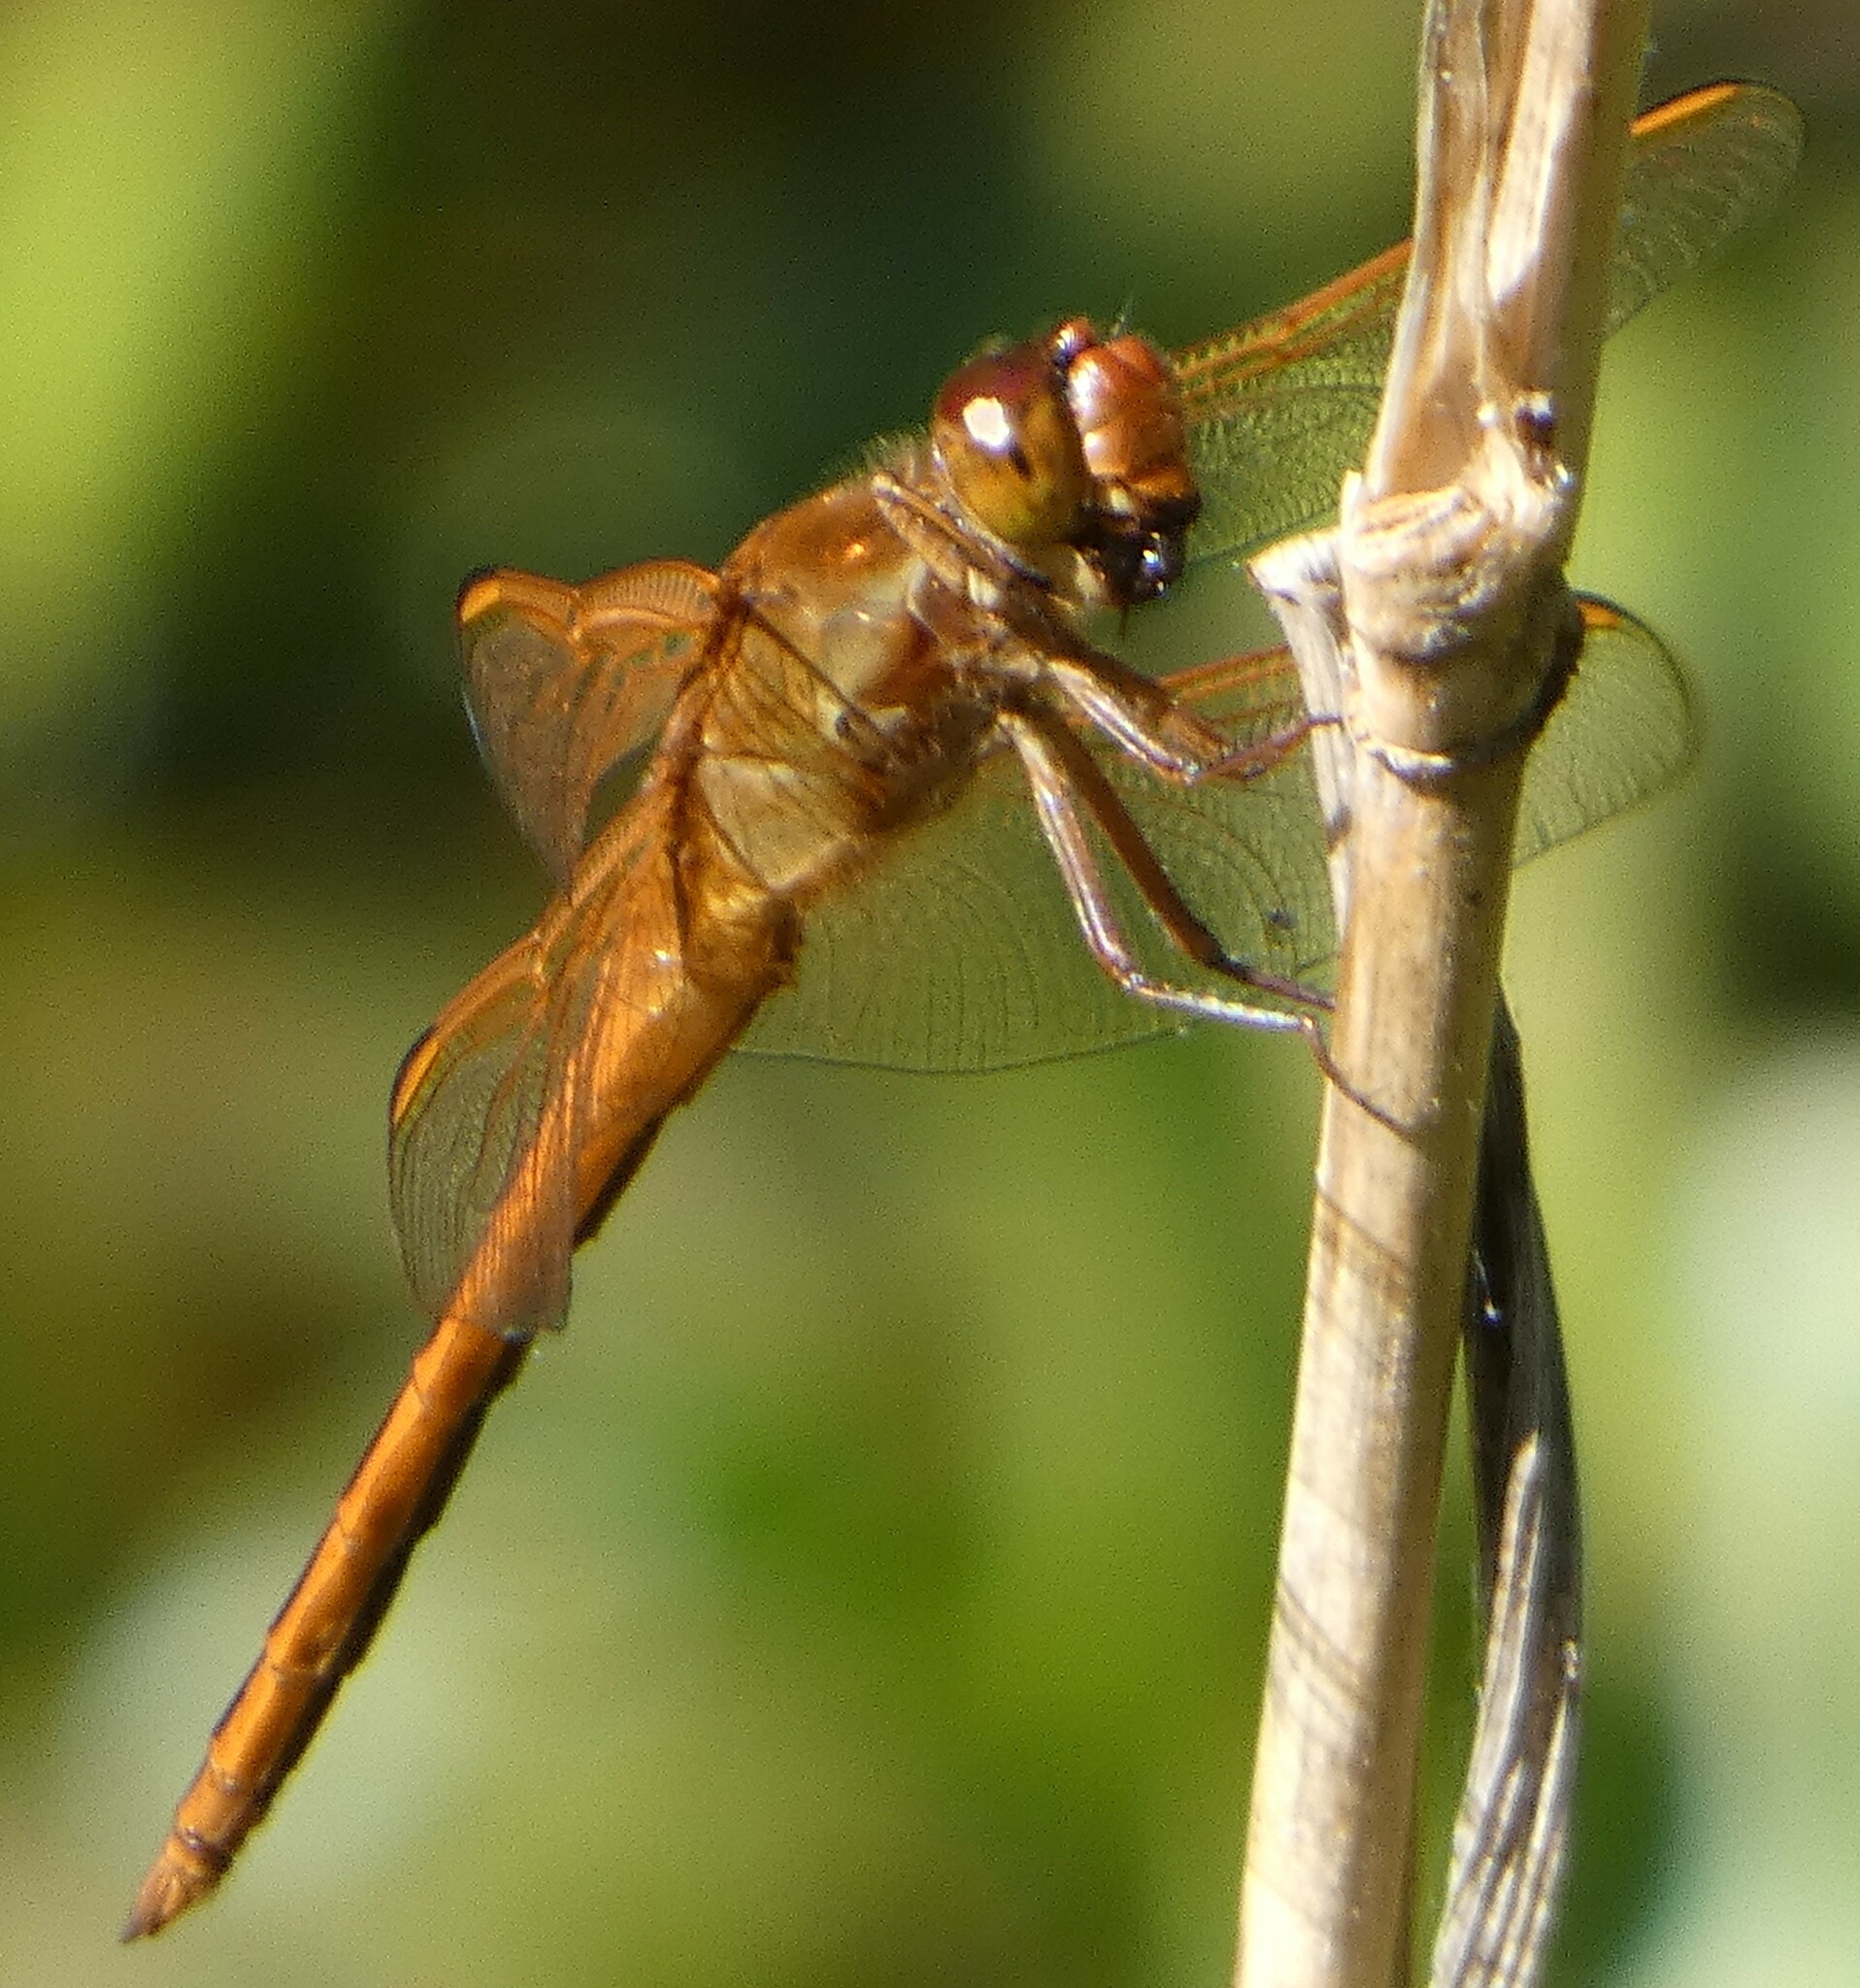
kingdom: Animalia
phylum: Arthropoda
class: Insecta
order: Odonata
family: Libellulidae
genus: Libellula
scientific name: Libellula needhami
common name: Needham's skimmer
